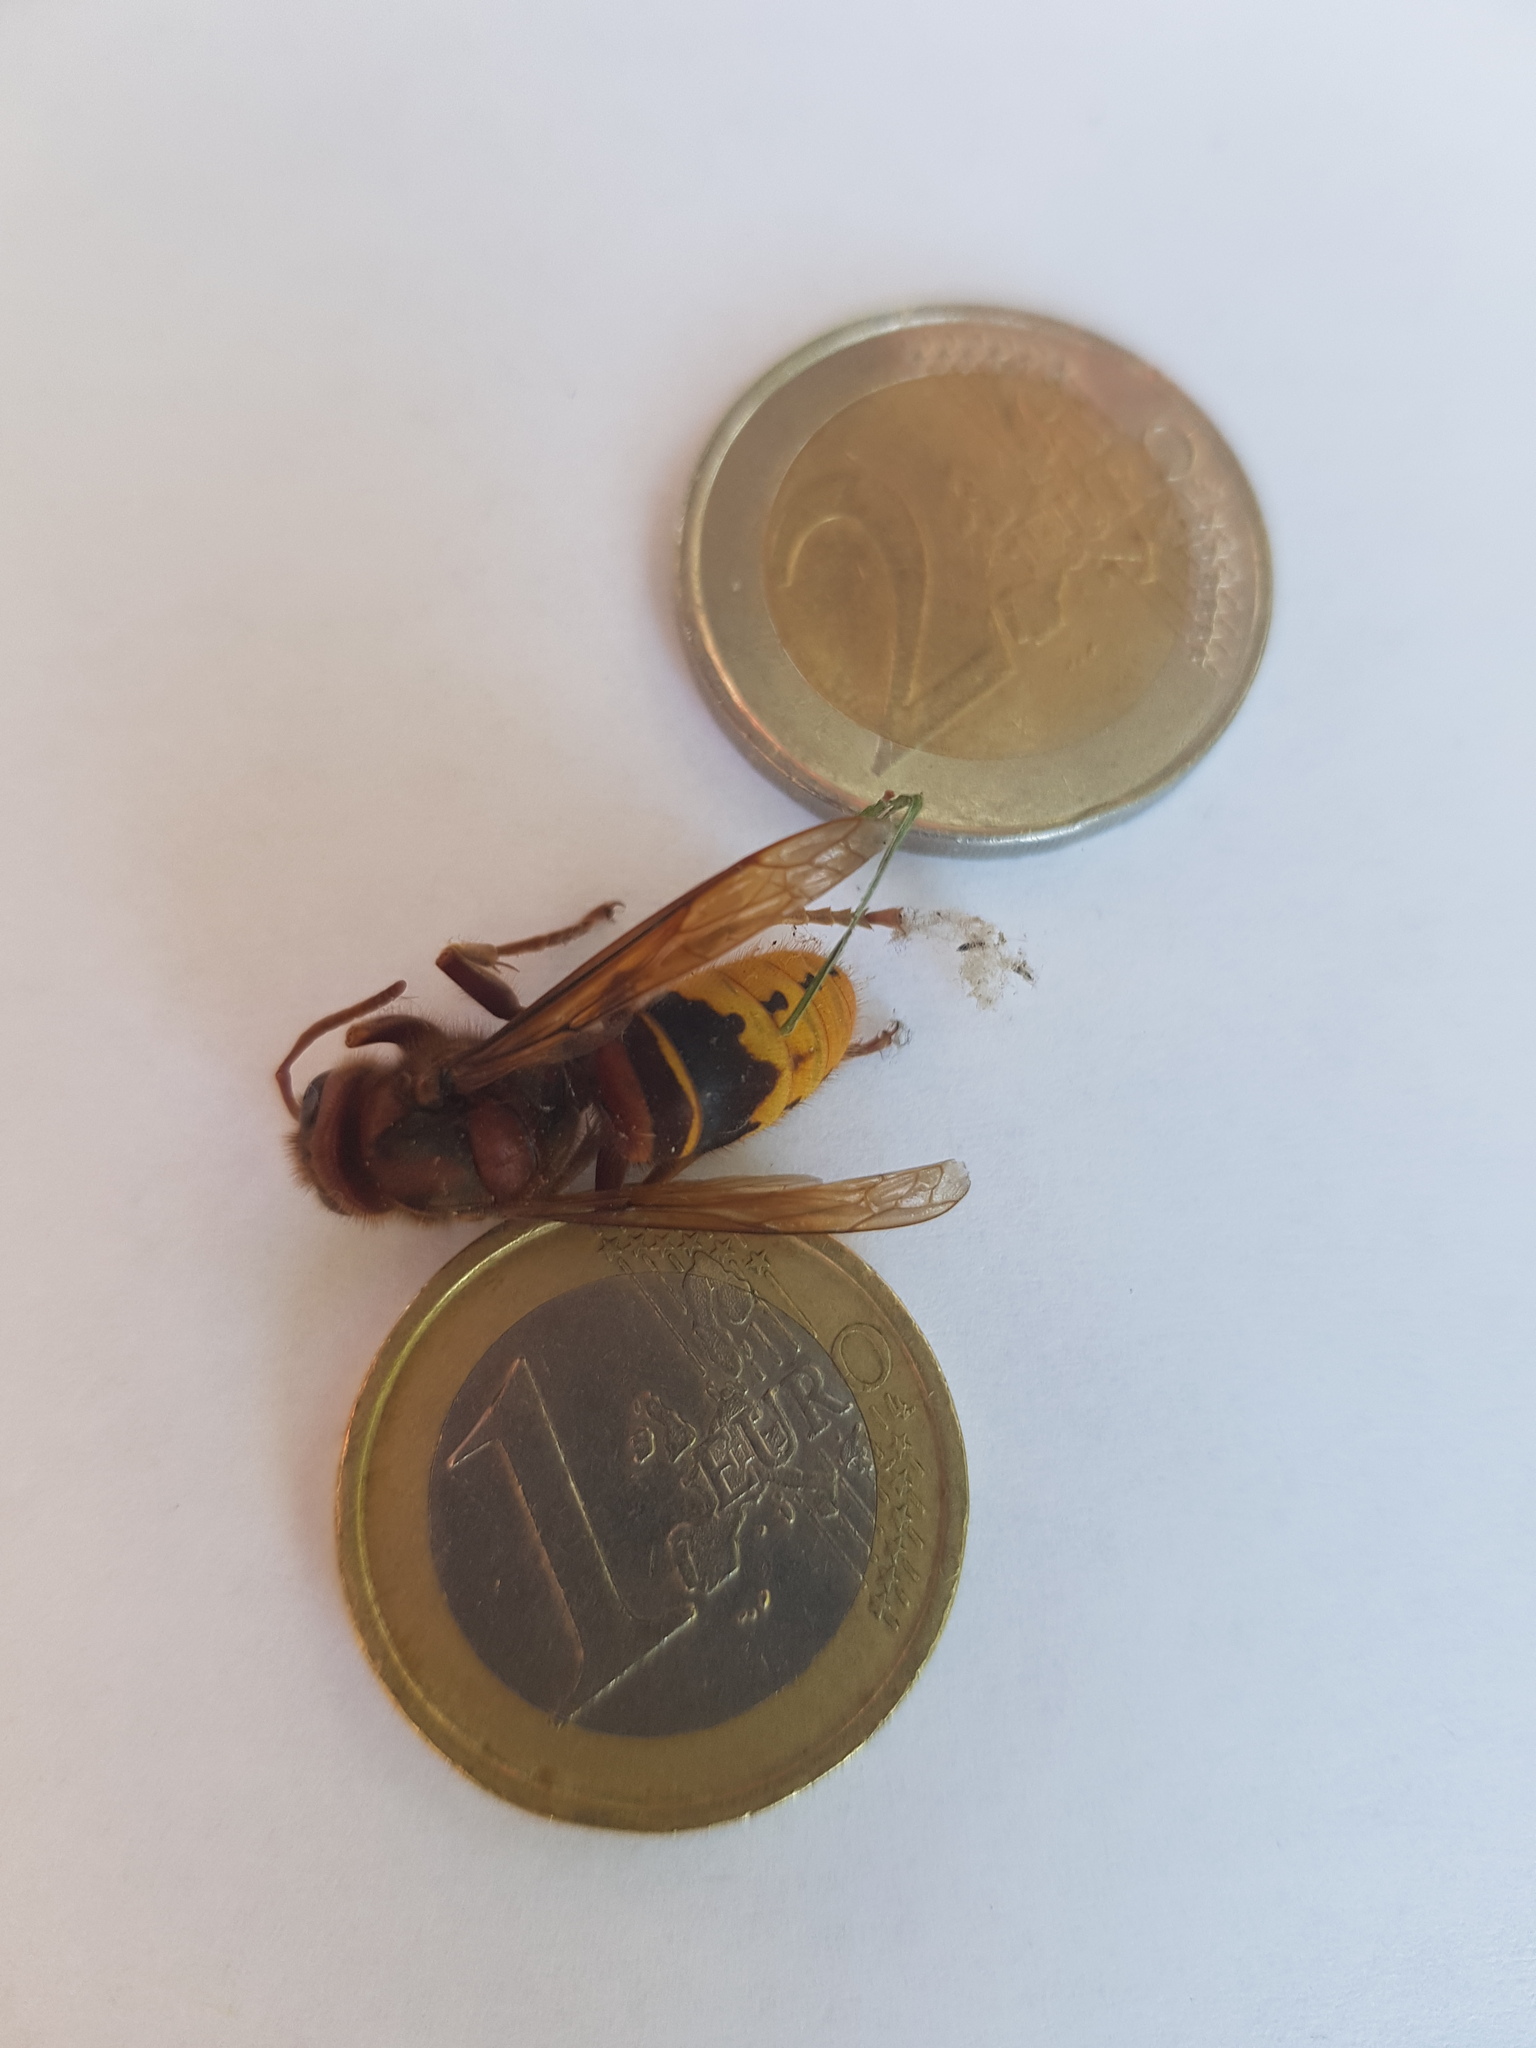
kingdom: Animalia
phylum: Arthropoda
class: Insecta
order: Hymenoptera
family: Vespidae
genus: Vespa
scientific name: Vespa crabro
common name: Hornet
